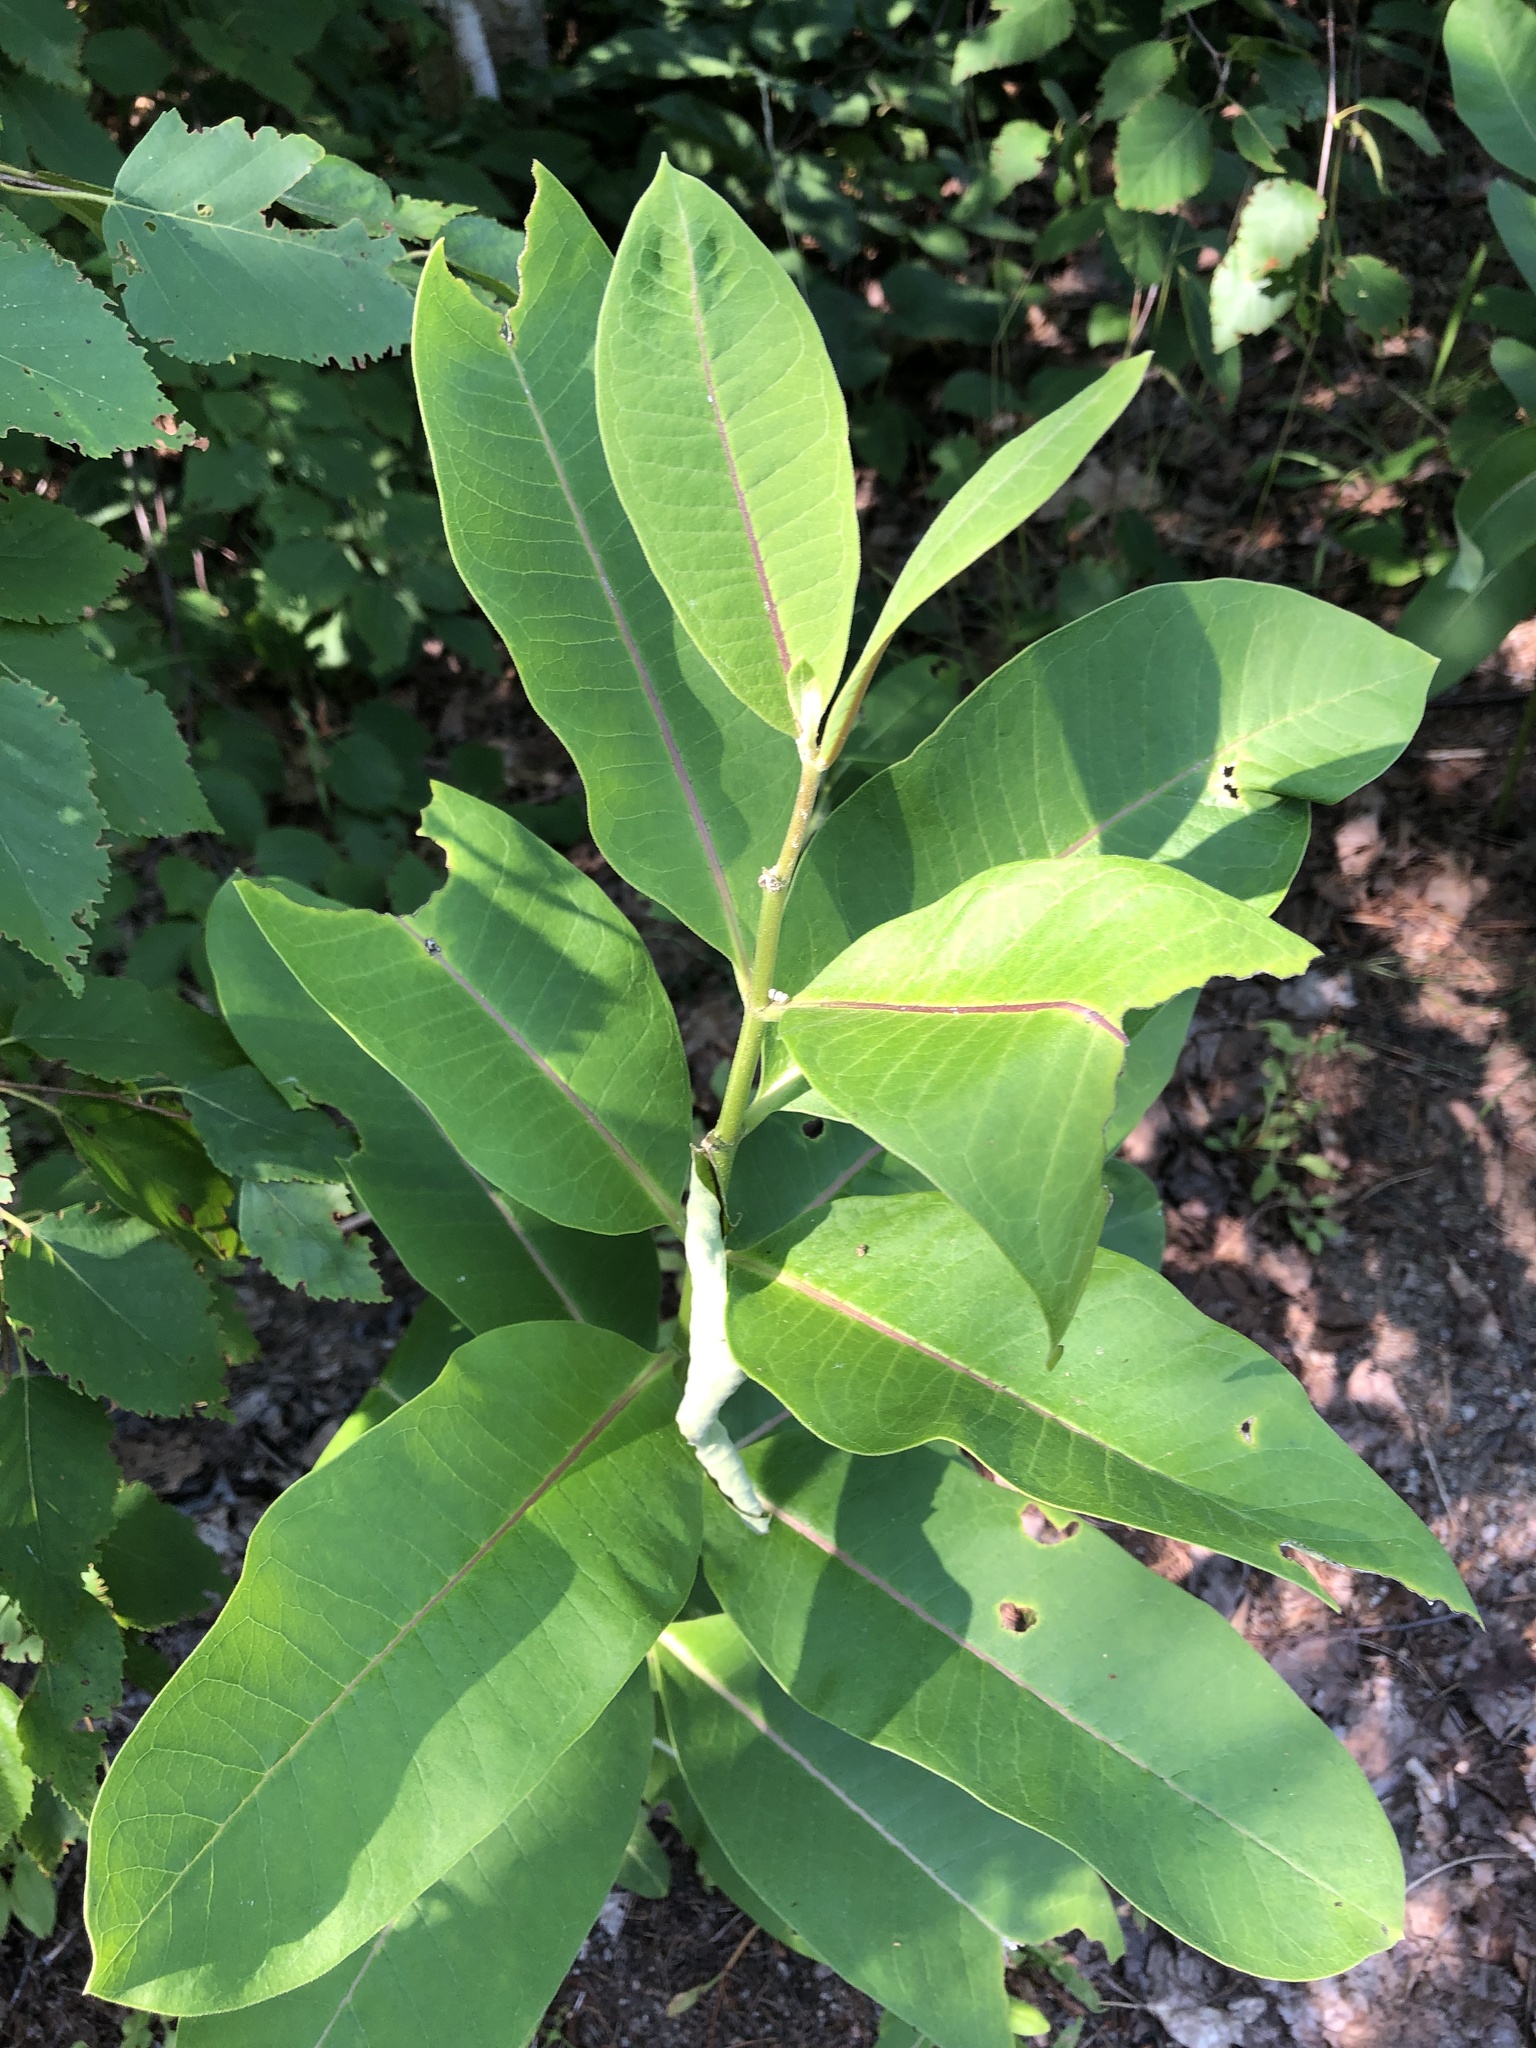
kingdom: Plantae
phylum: Tracheophyta
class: Magnoliopsida
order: Gentianales
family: Apocynaceae
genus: Asclepias
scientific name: Asclepias syriaca
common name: Common milkweed
